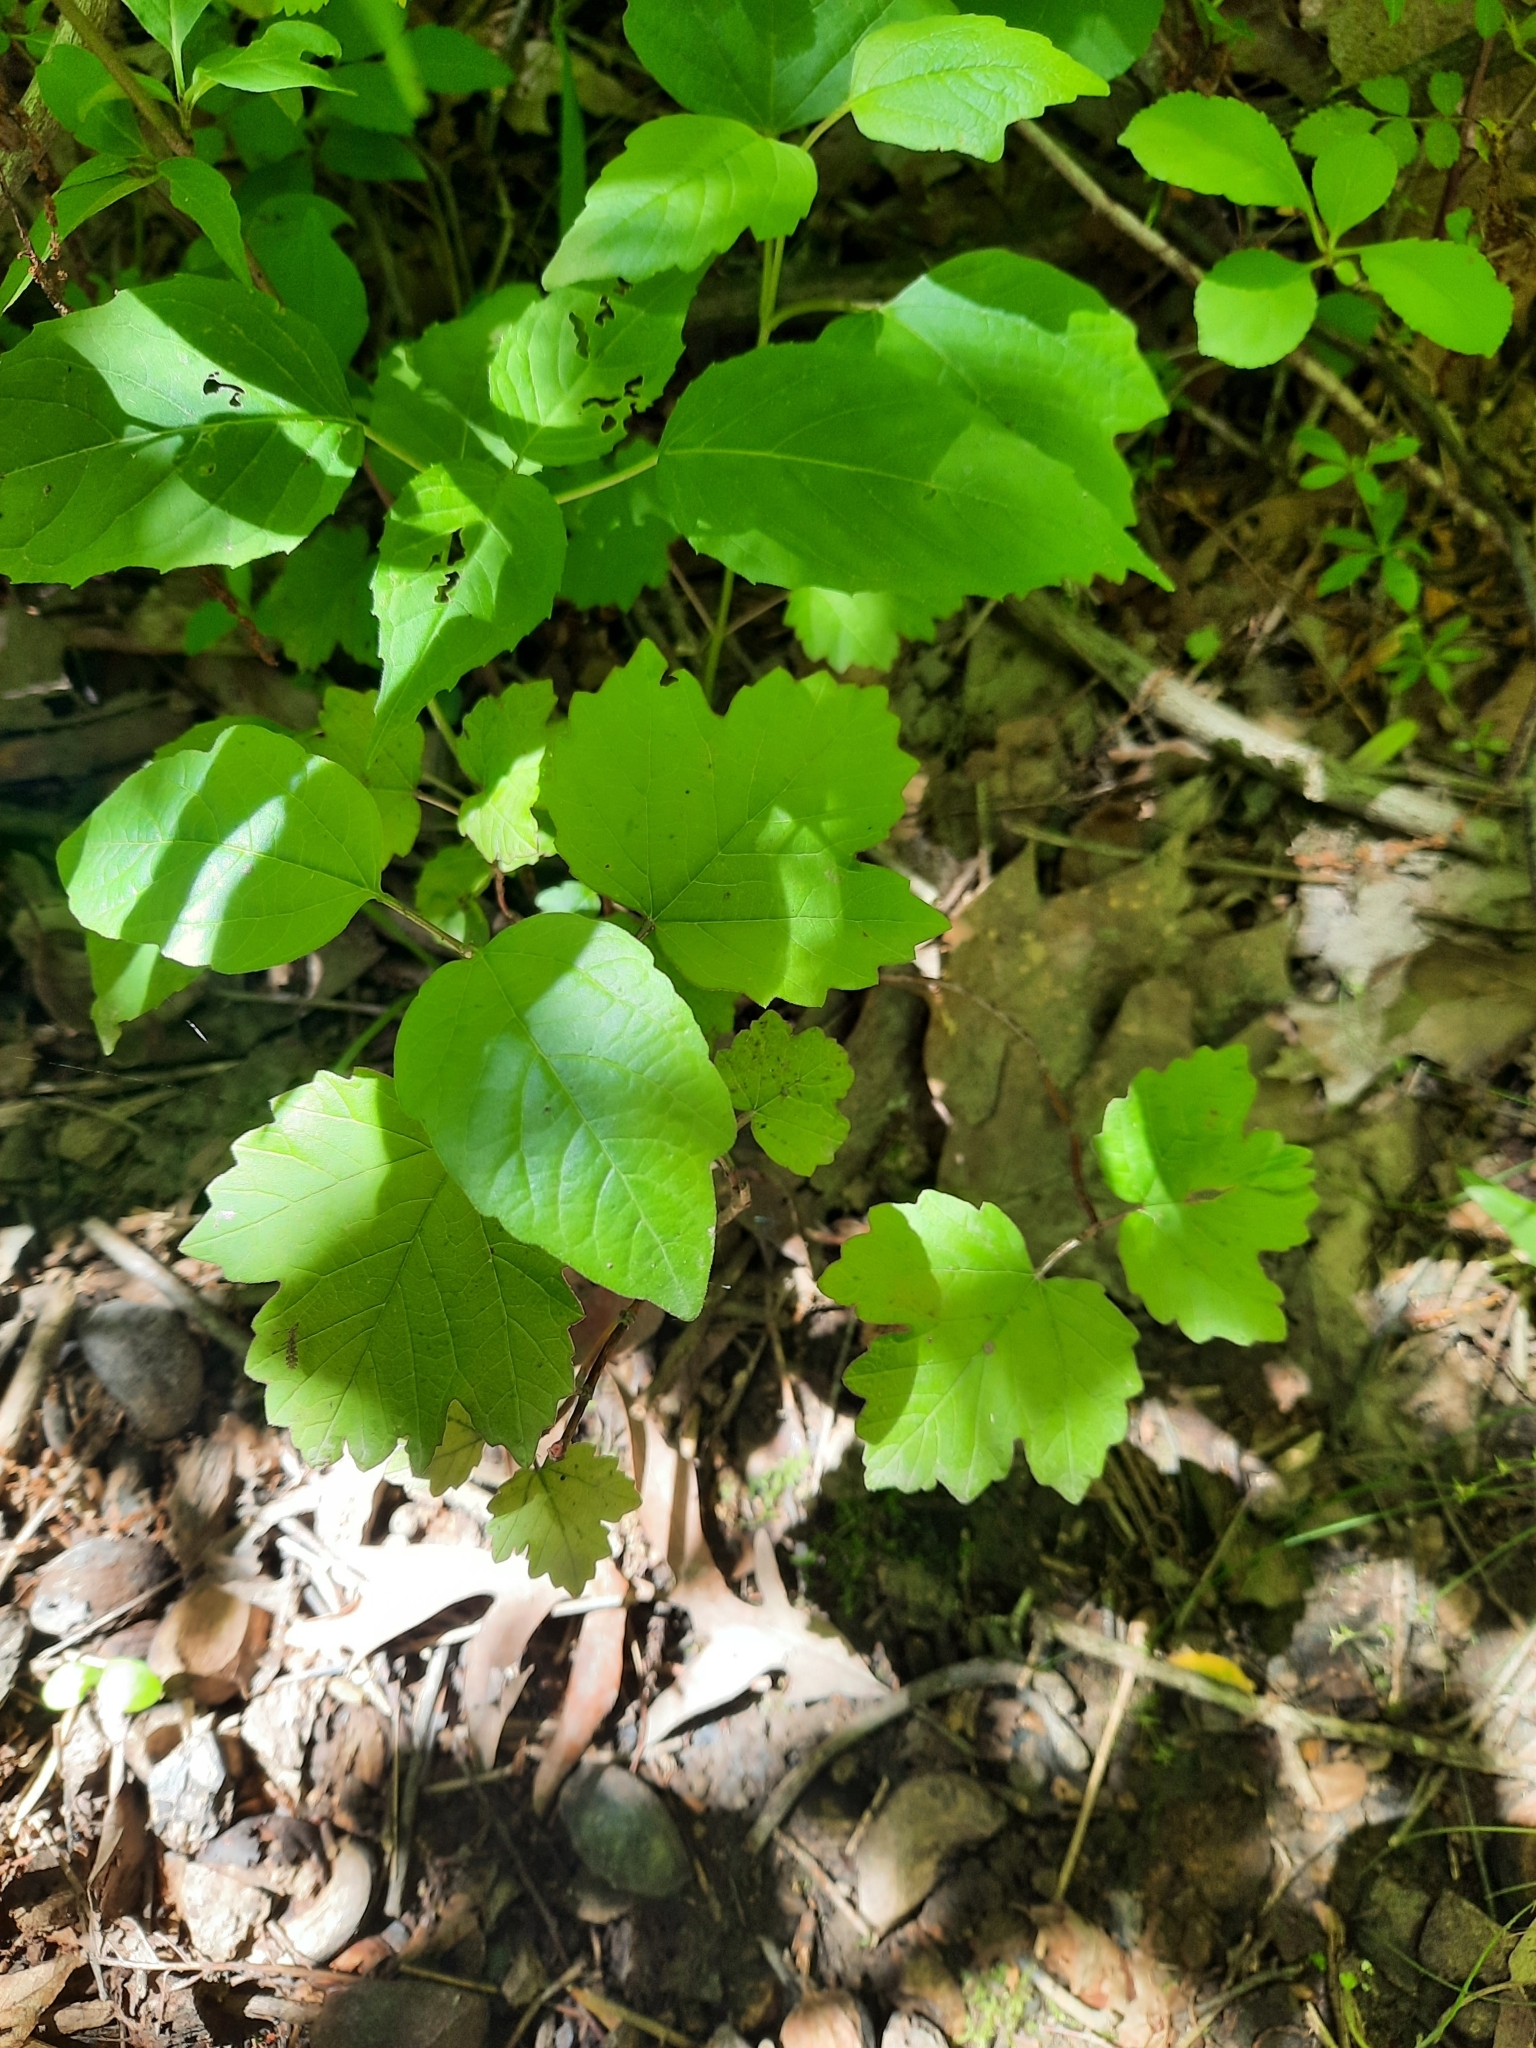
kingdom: Plantae
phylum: Tracheophyta
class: Magnoliopsida
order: Dipsacales
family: Viburnaceae
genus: Viburnum
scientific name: Viburnum acerifolium
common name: Dockmackie
